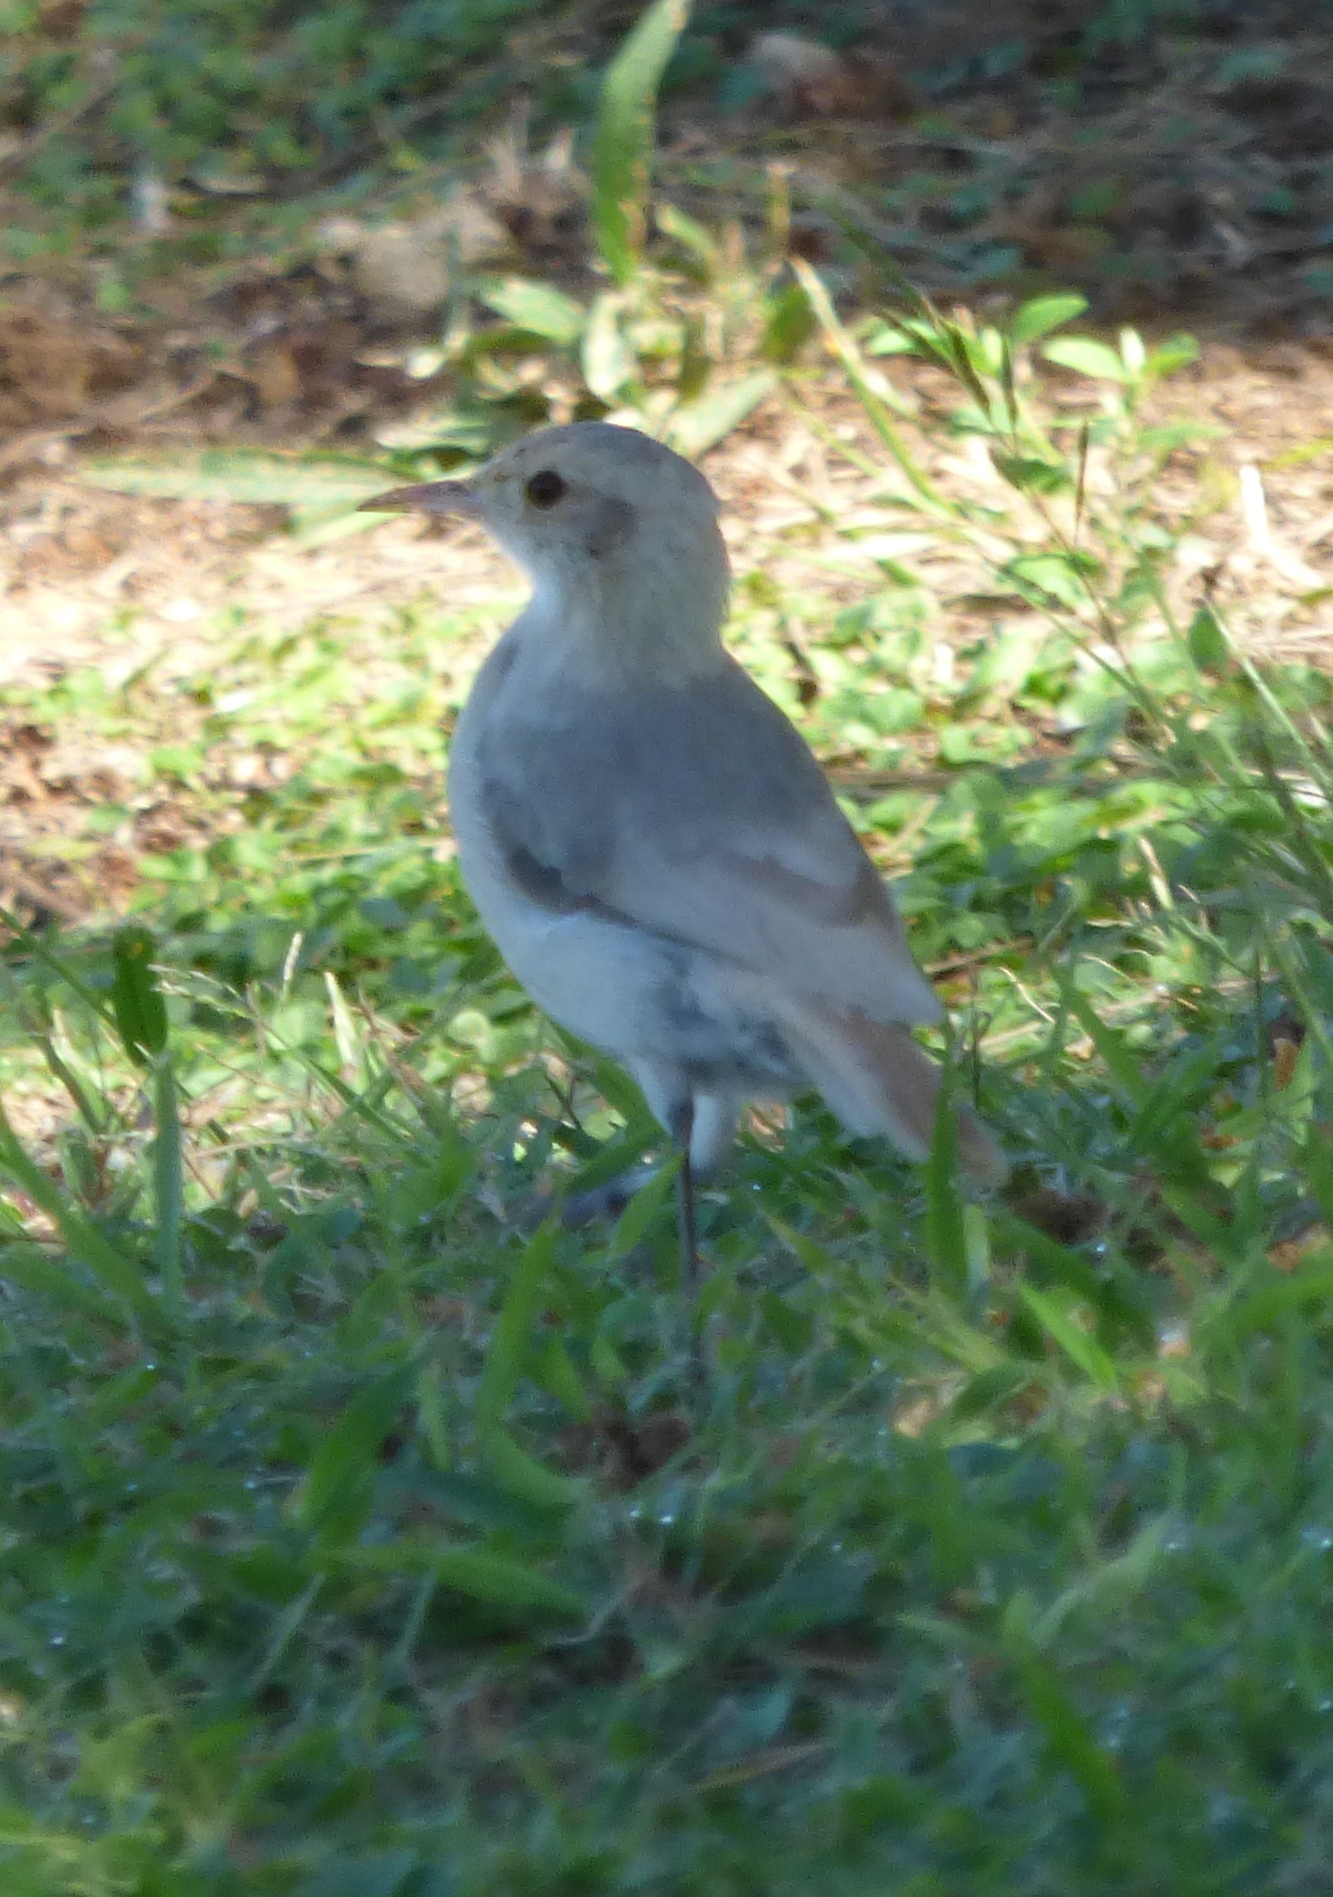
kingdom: Animalia
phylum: Chordata
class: Aves
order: Passeriformes
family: Furnariidae
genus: Furnarius
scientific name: Furnarius rufus
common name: Rufous hornero
